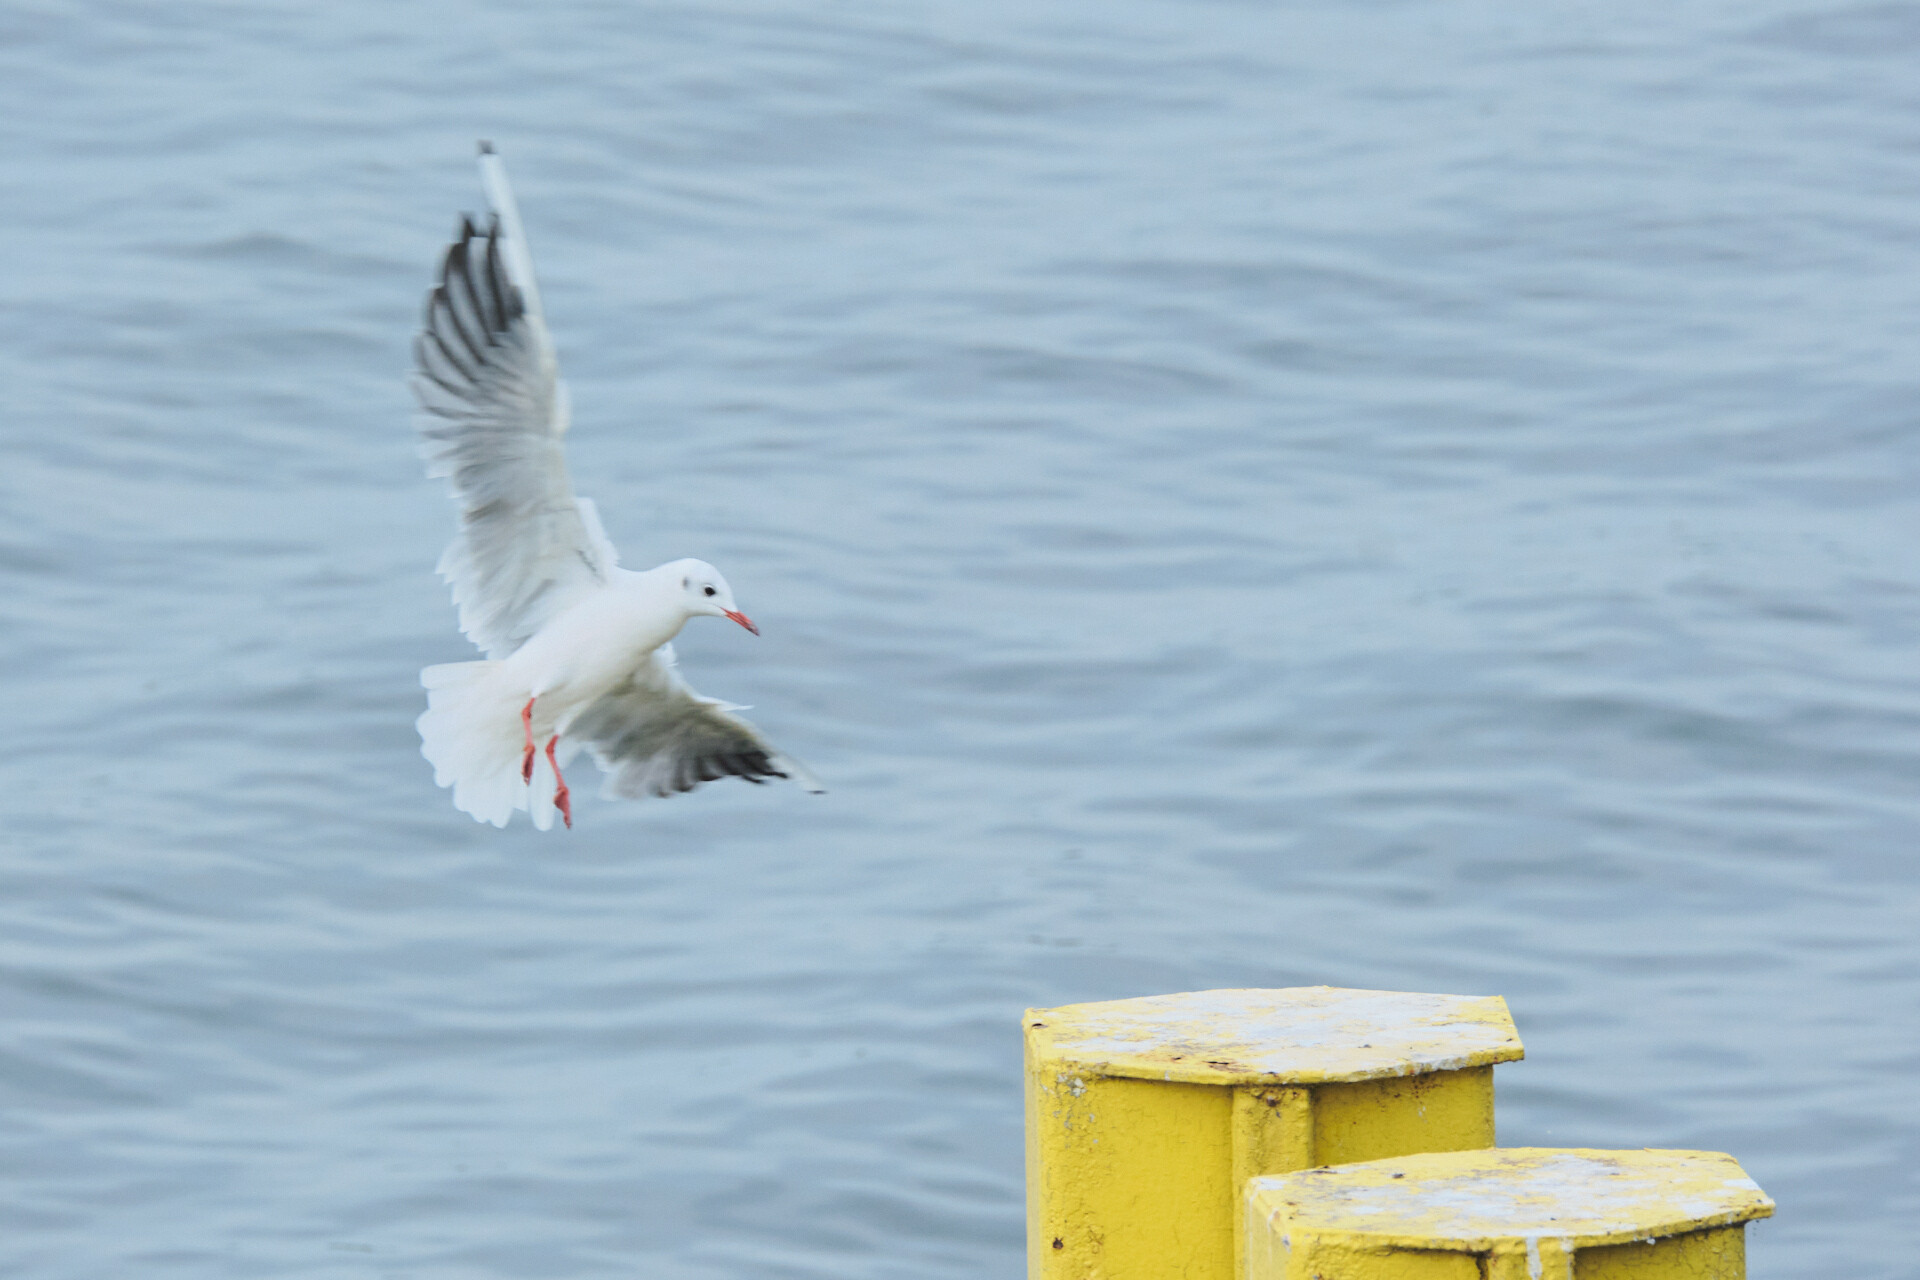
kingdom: Animalia
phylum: Chordata
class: Aves
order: Charadriiformes
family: Laridae
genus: Chroicocephalus
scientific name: Chroicocephalus ridibundus
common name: Black-headed gull
